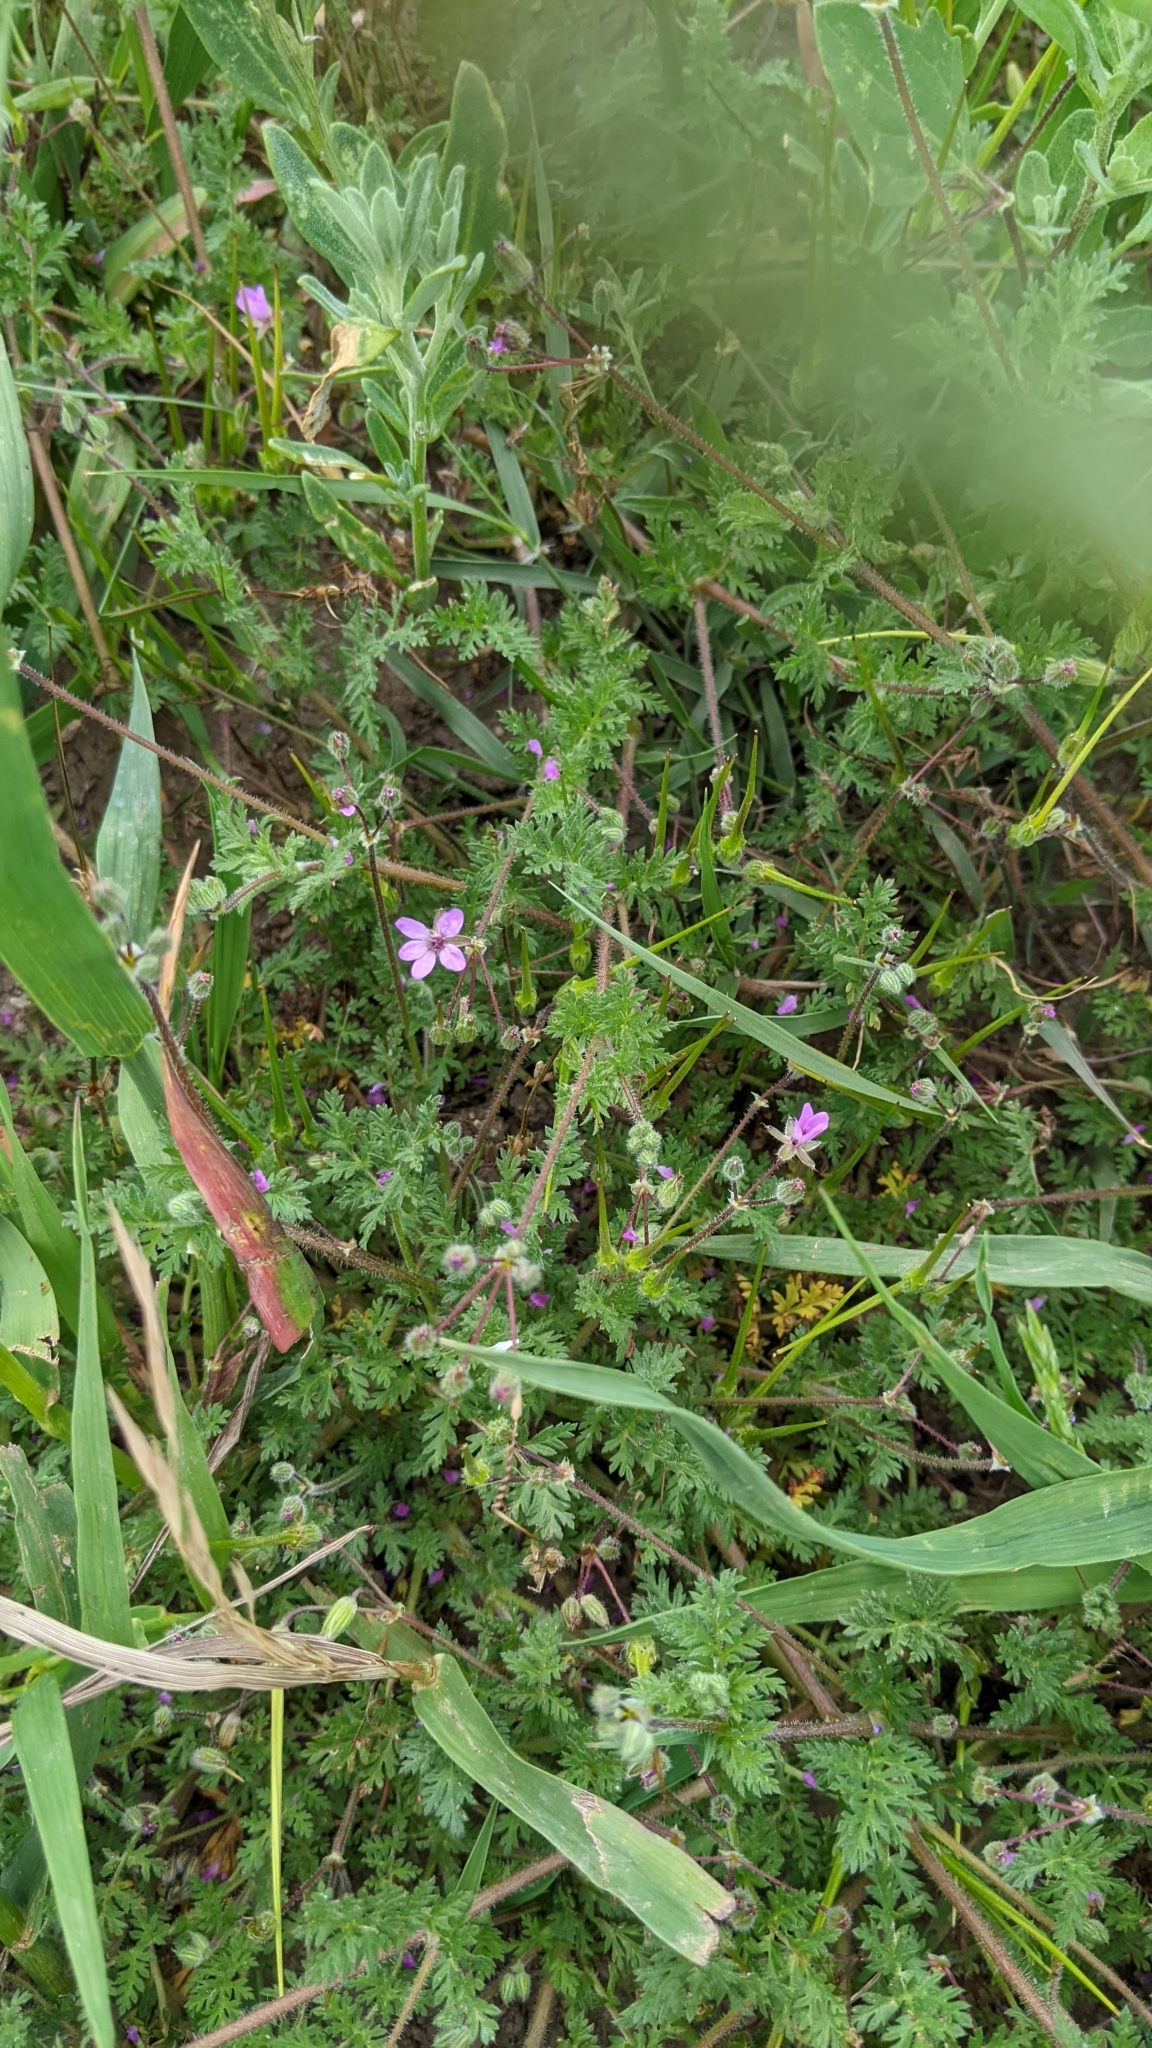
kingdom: Plantae
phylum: Tracheophyta
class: Magnoliopsida
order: Geraniales
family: Geraniaceae
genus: Erodium
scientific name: Erodium cicutarium
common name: Common stork's-bill
